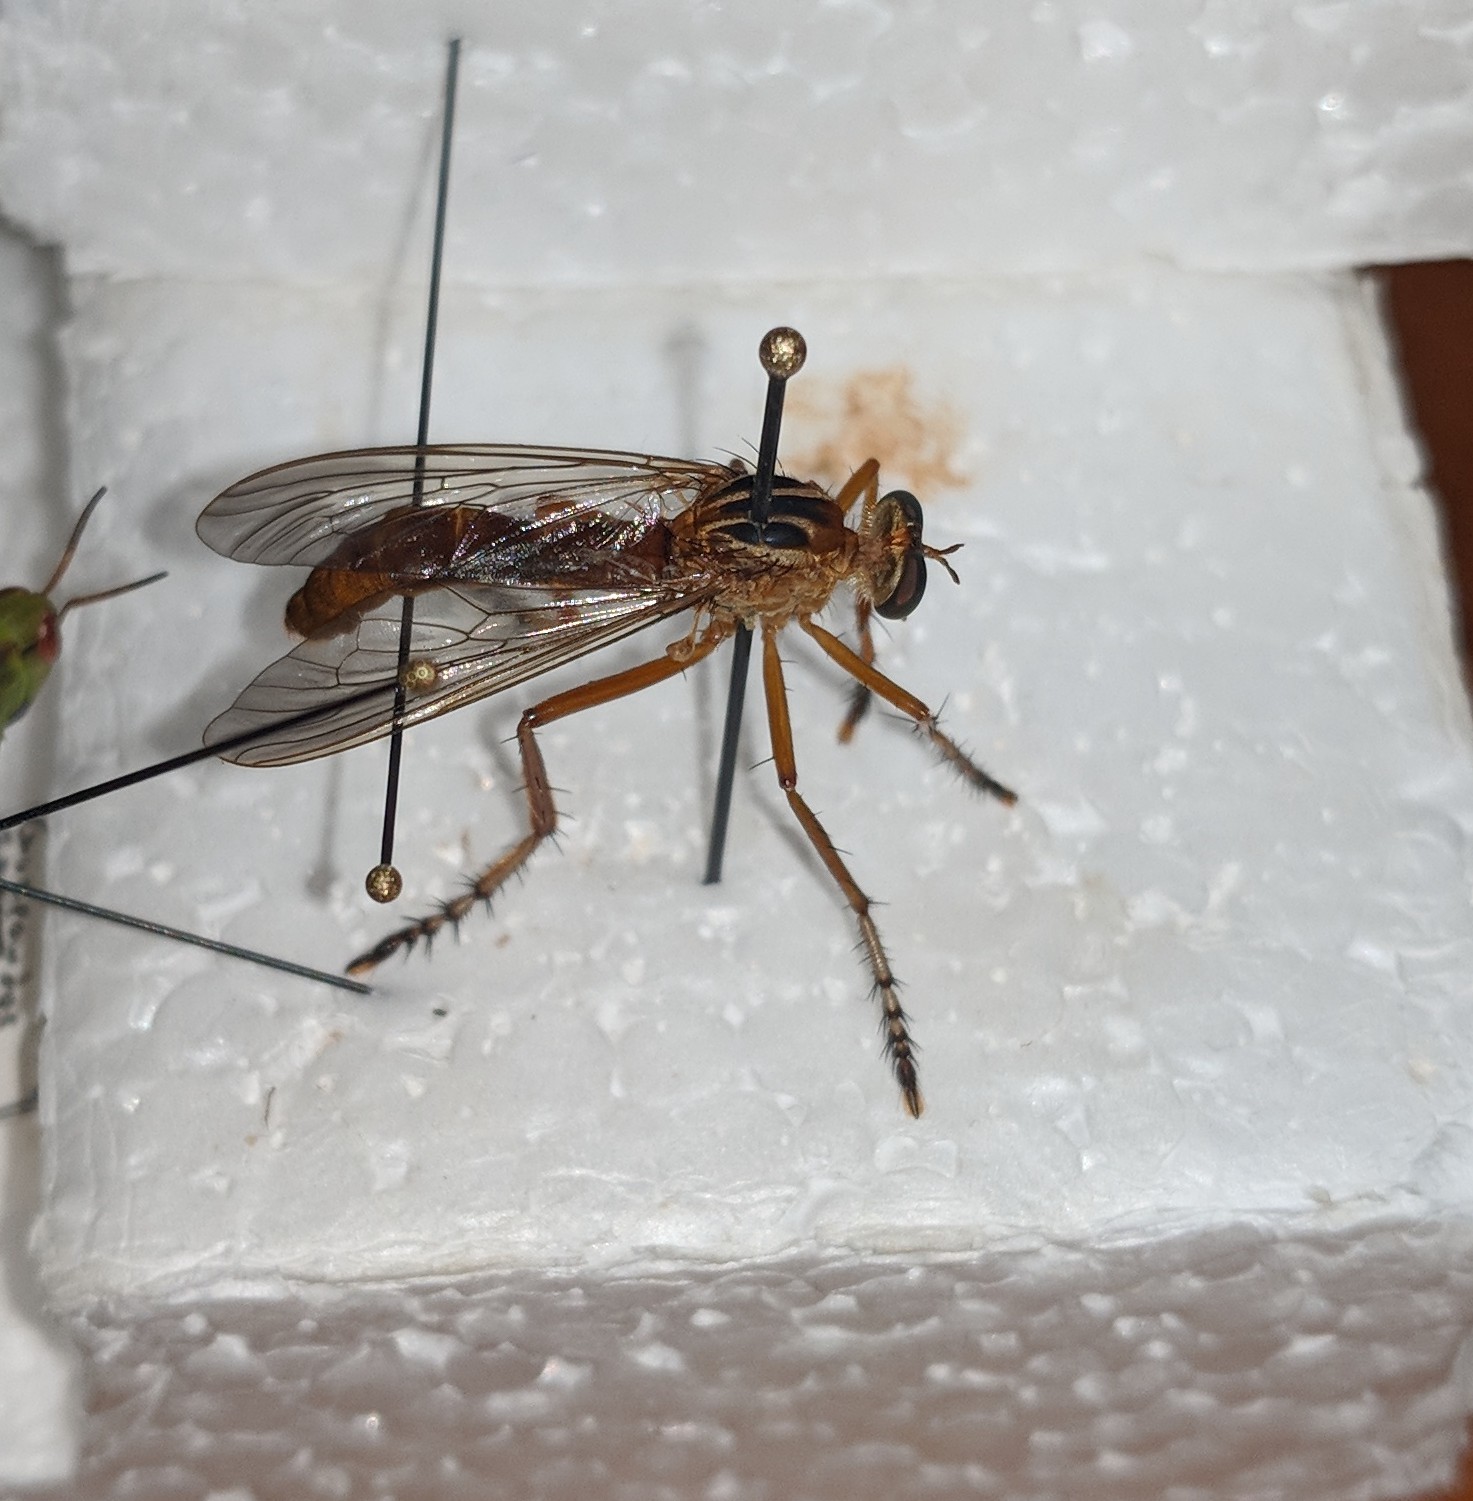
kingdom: Animalia
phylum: Arthropoda
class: Insecta
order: Diptera
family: Asilidae
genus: Diogmites
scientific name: Diogmites neoternatus
